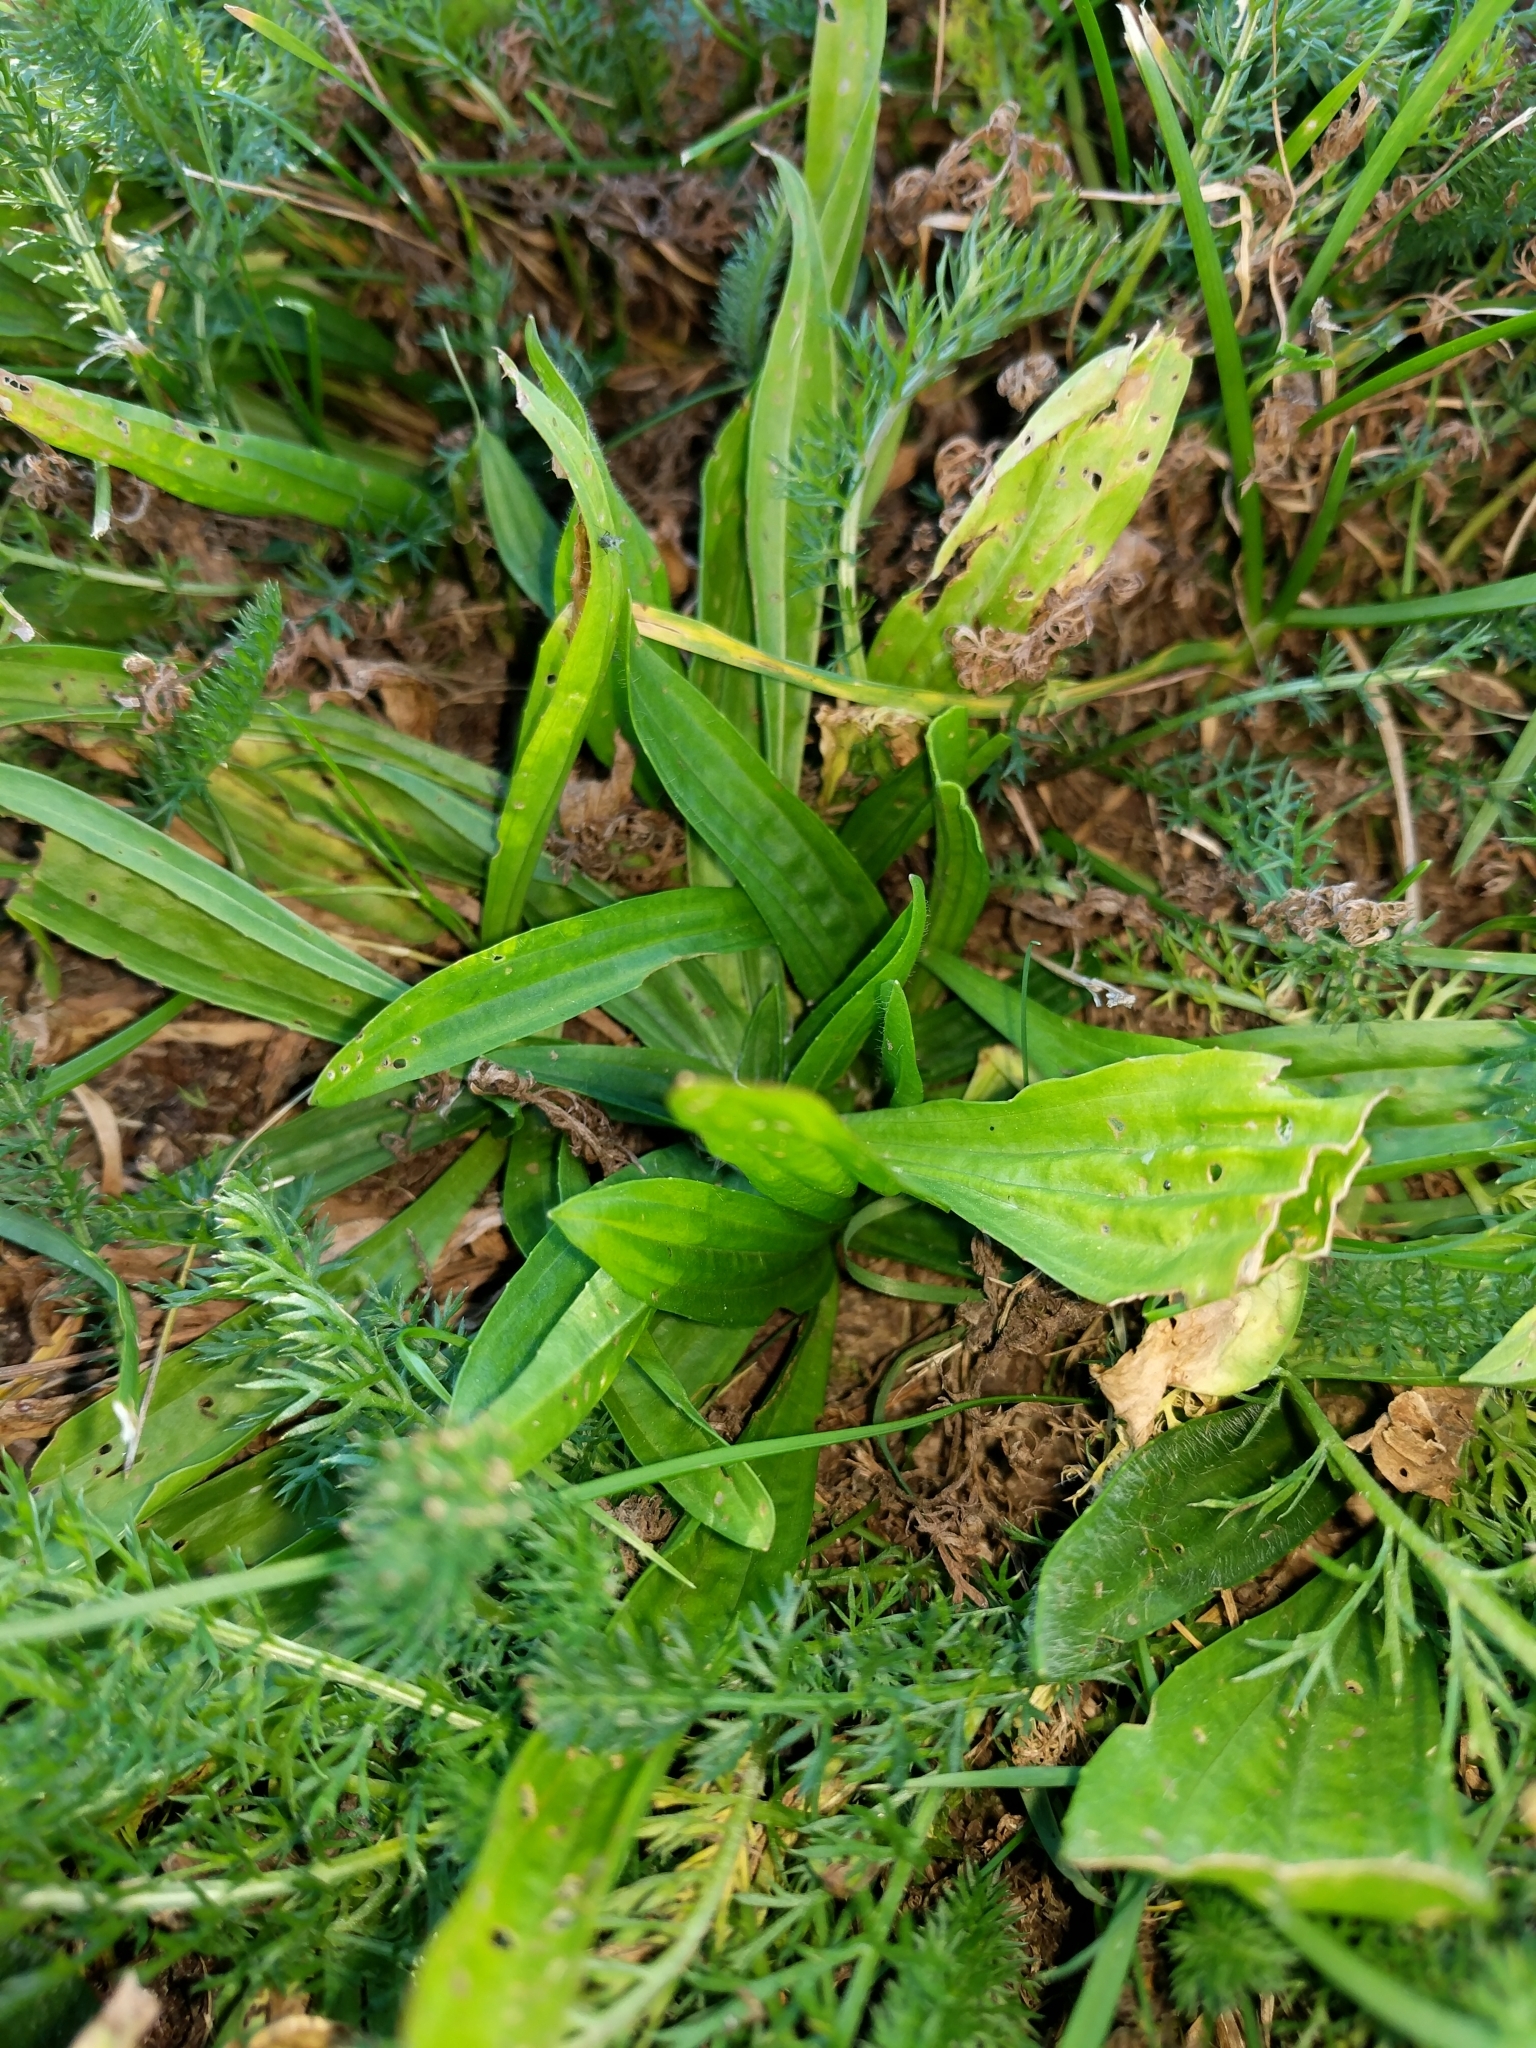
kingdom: Plantae
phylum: Tracheophyta
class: Magnoliopsida
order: Lamiales
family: Plantaginaceae
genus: Plantago
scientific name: Plantago lanceolata
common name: Ribwort plantain
